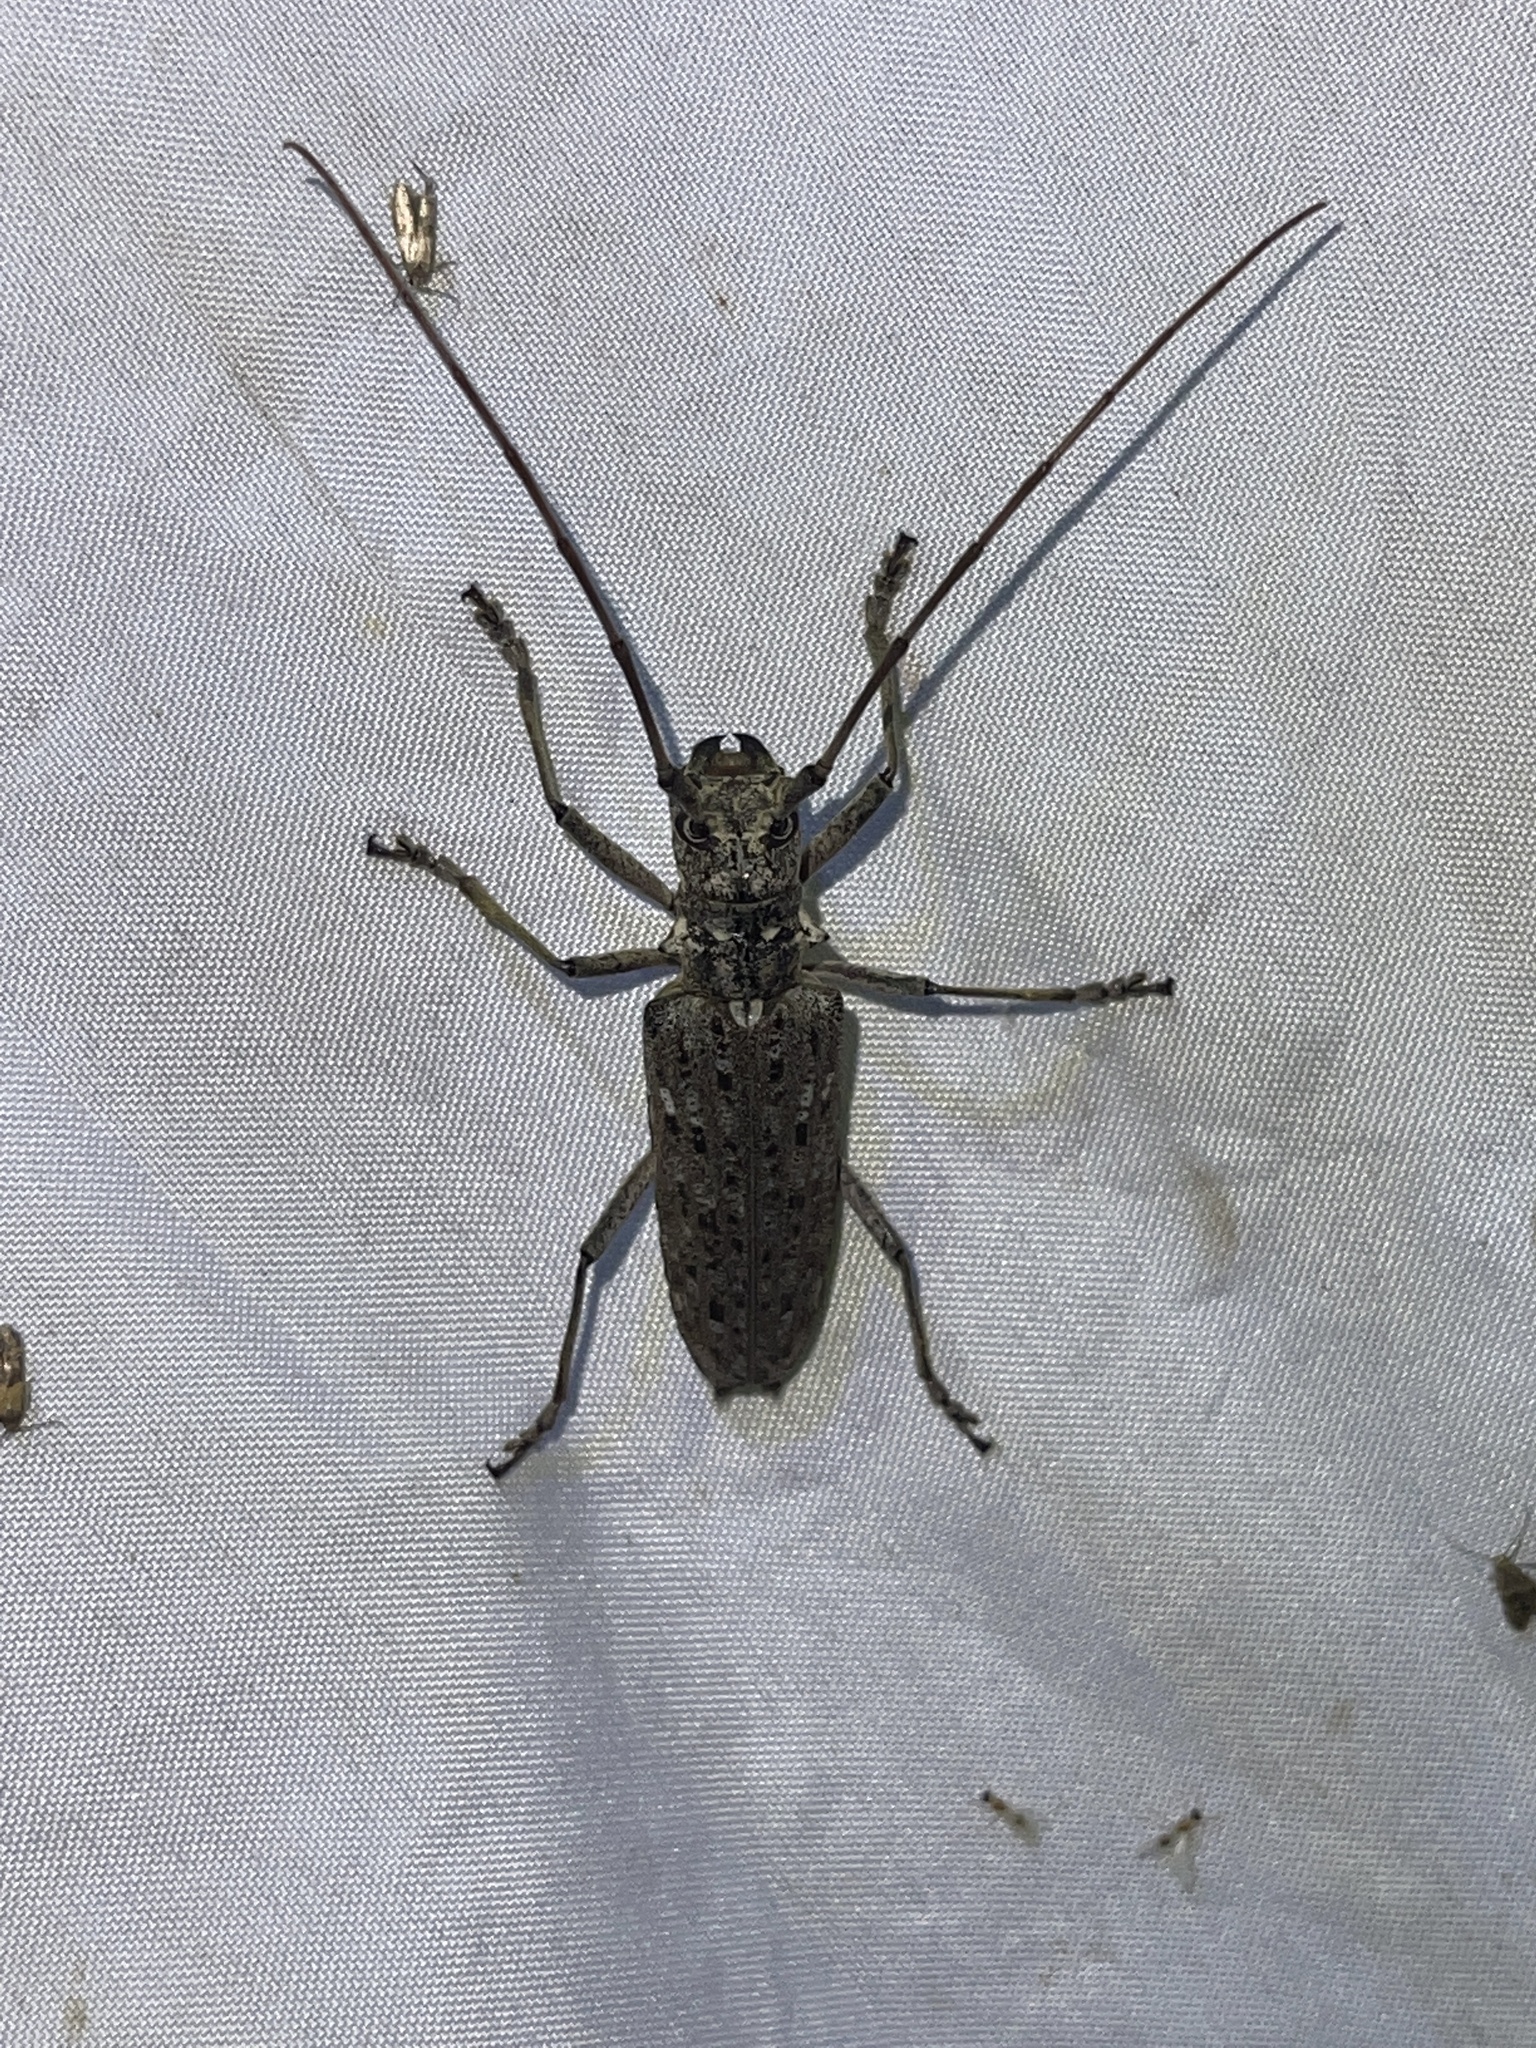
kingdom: Animalia
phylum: Arthropoda
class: Insecta
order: Coleoptera
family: Cerambycidae
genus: Monochamus
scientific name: Monochamus notatus
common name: Northeastern pine sawyer beetle
